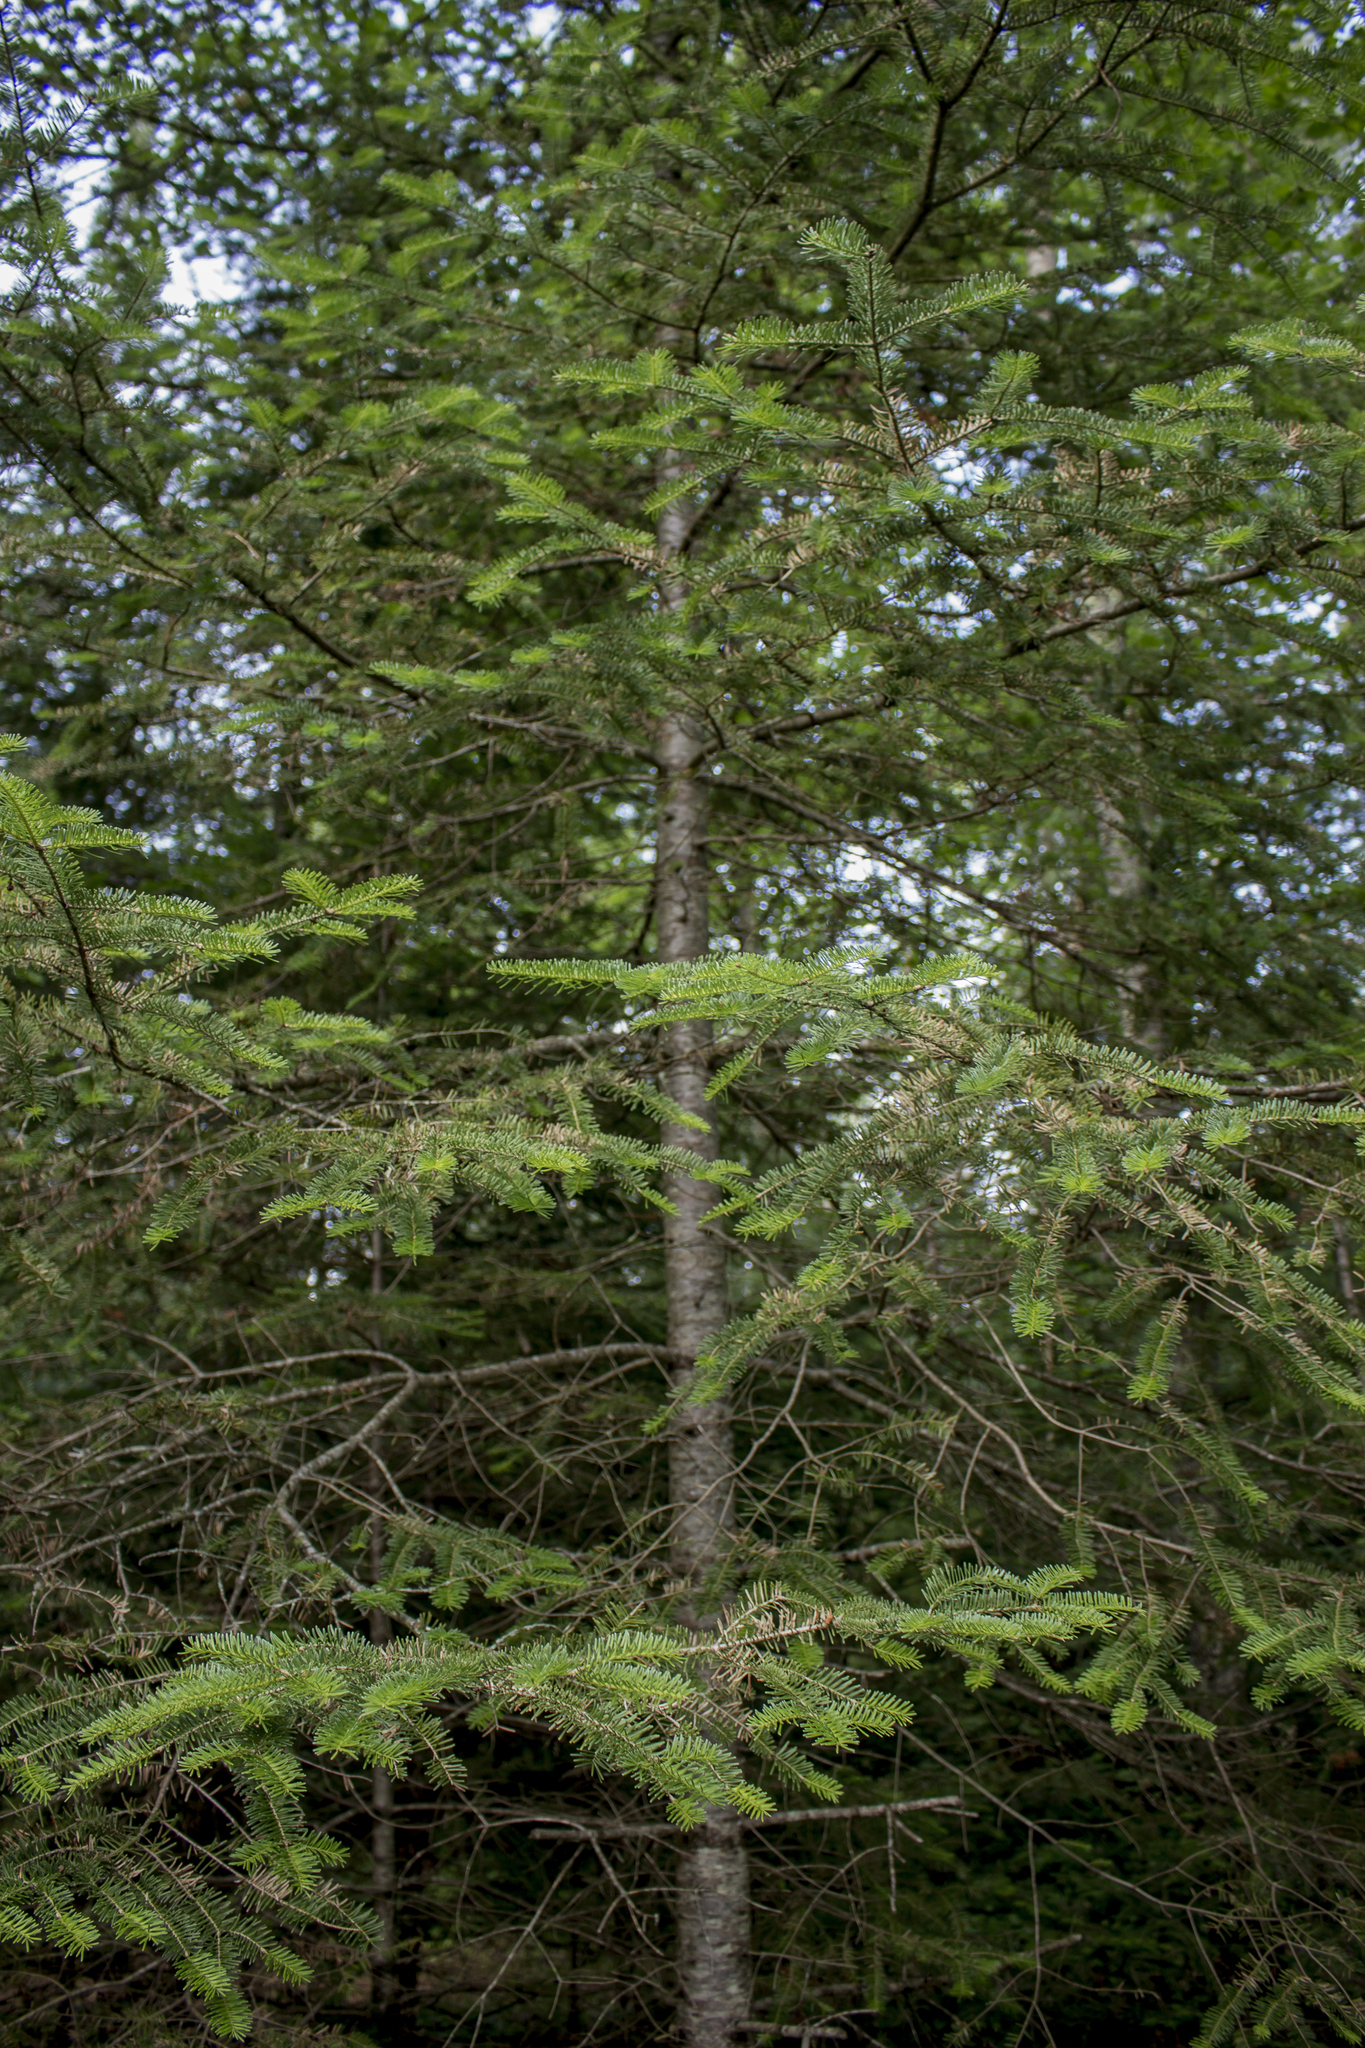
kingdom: Plantae
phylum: Tracheophyta
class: Pinopsida
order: Pinales
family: Pinaceae
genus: Abies
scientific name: Abies balsamea
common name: Balsam fir
